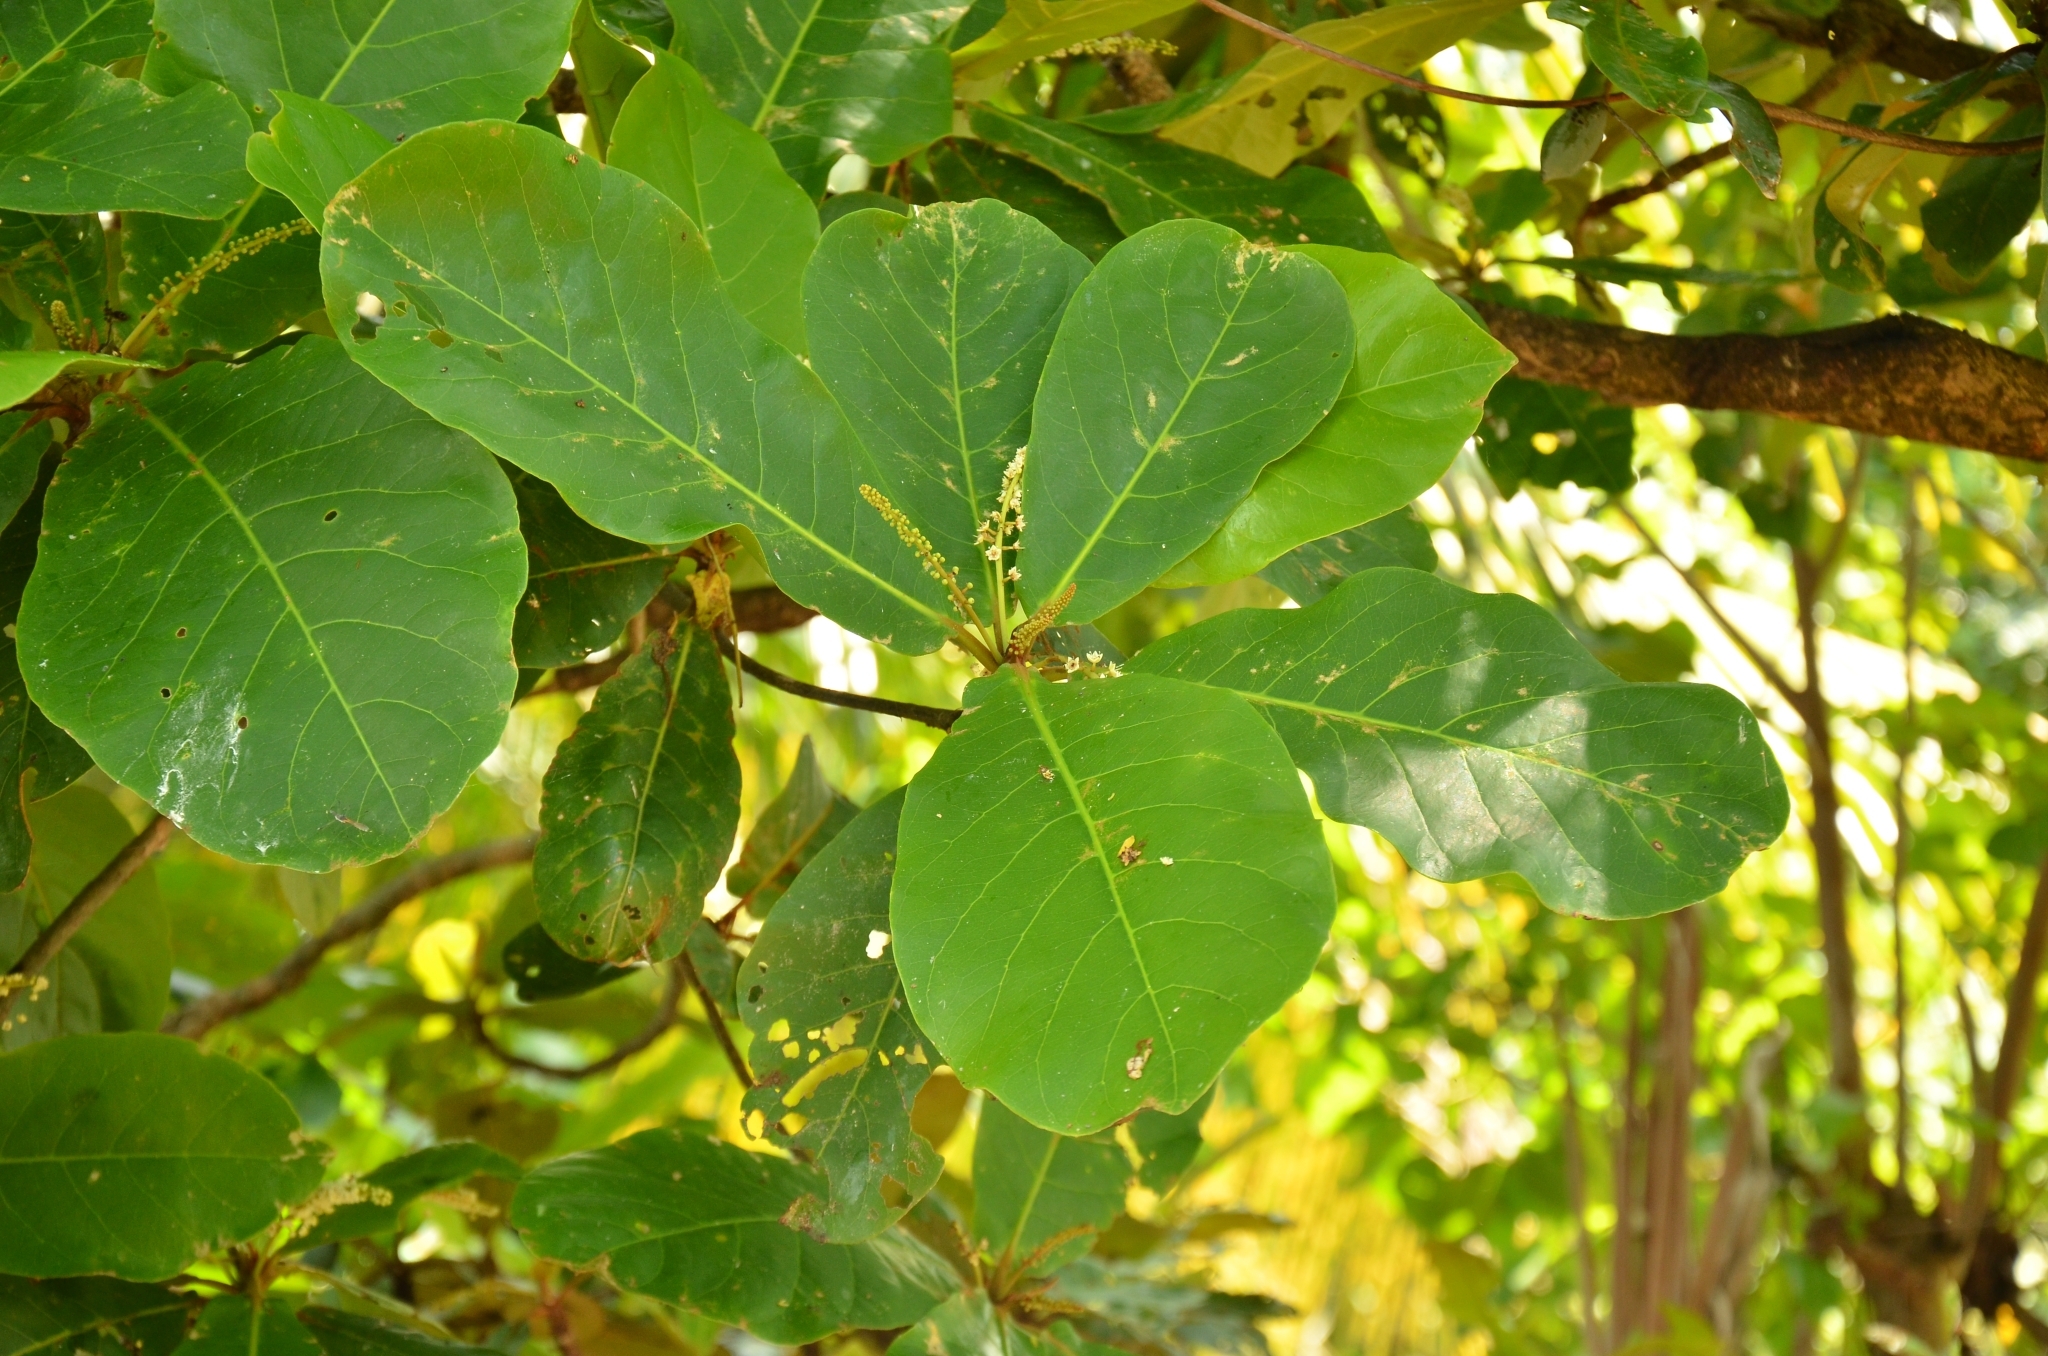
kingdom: Plantae
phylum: Tracheophyta
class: Magnoliopsida
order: Myrtales
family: Combretaceae
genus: Terminalia
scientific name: Terminalia catappa
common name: Tropical almond
